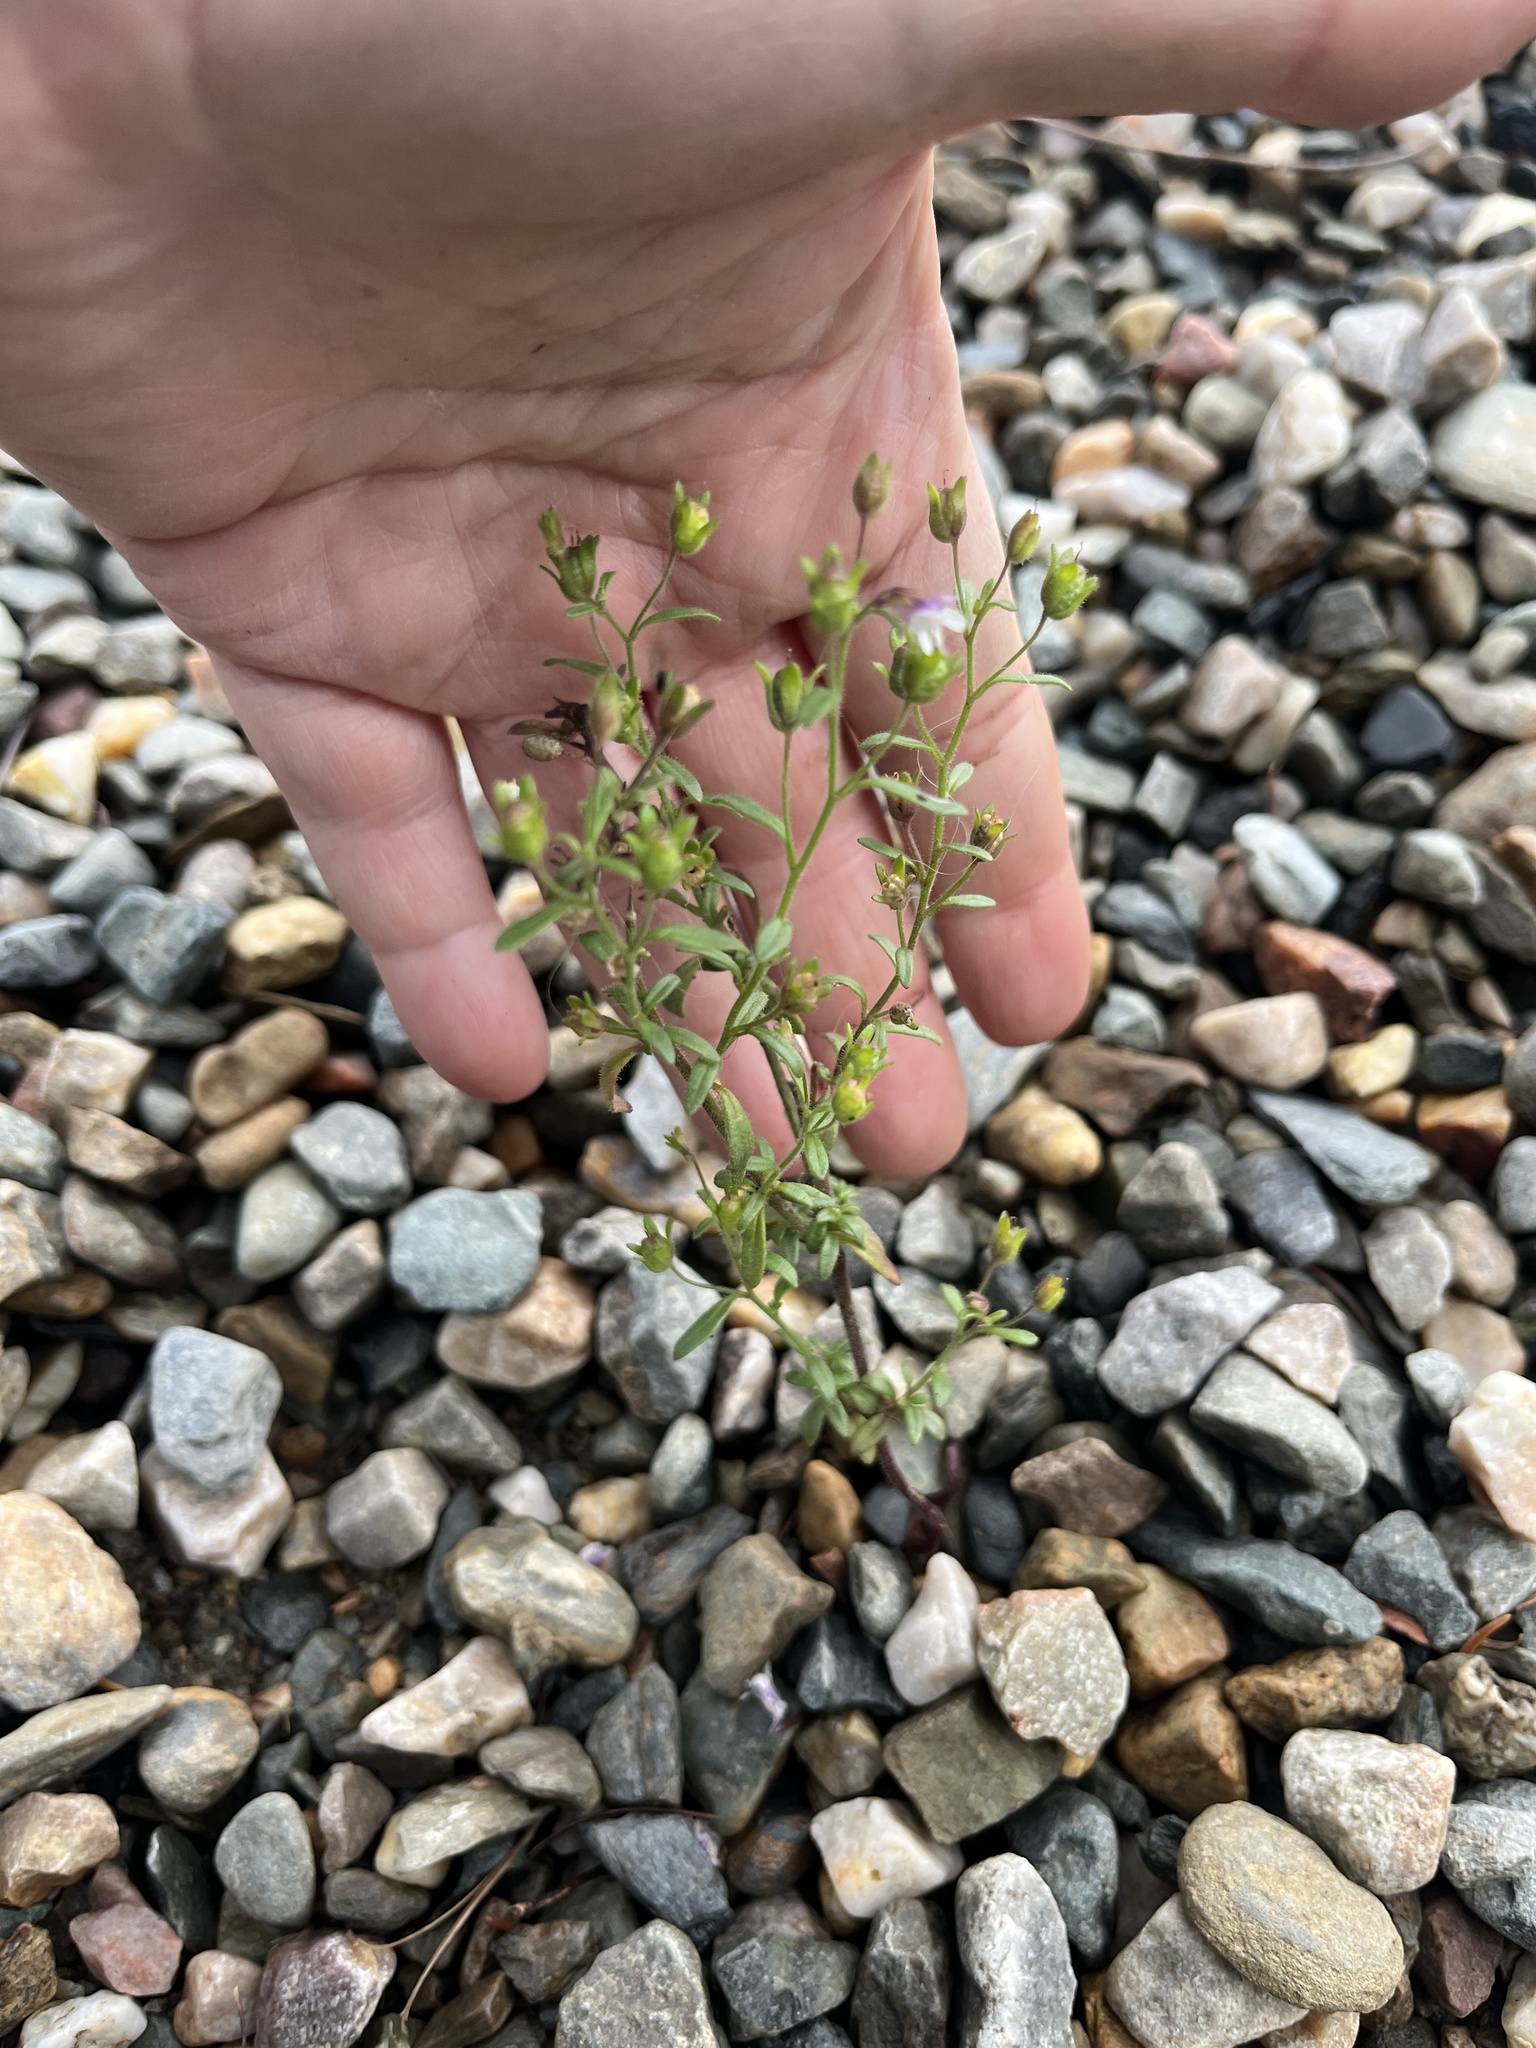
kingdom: Plantae
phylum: Tracheophyta
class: Magnoliopsida
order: Lamiales
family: Plantaginaceae
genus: Chaenorhinum
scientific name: Chaenorhinum minus
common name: Dwarf snapdragon
